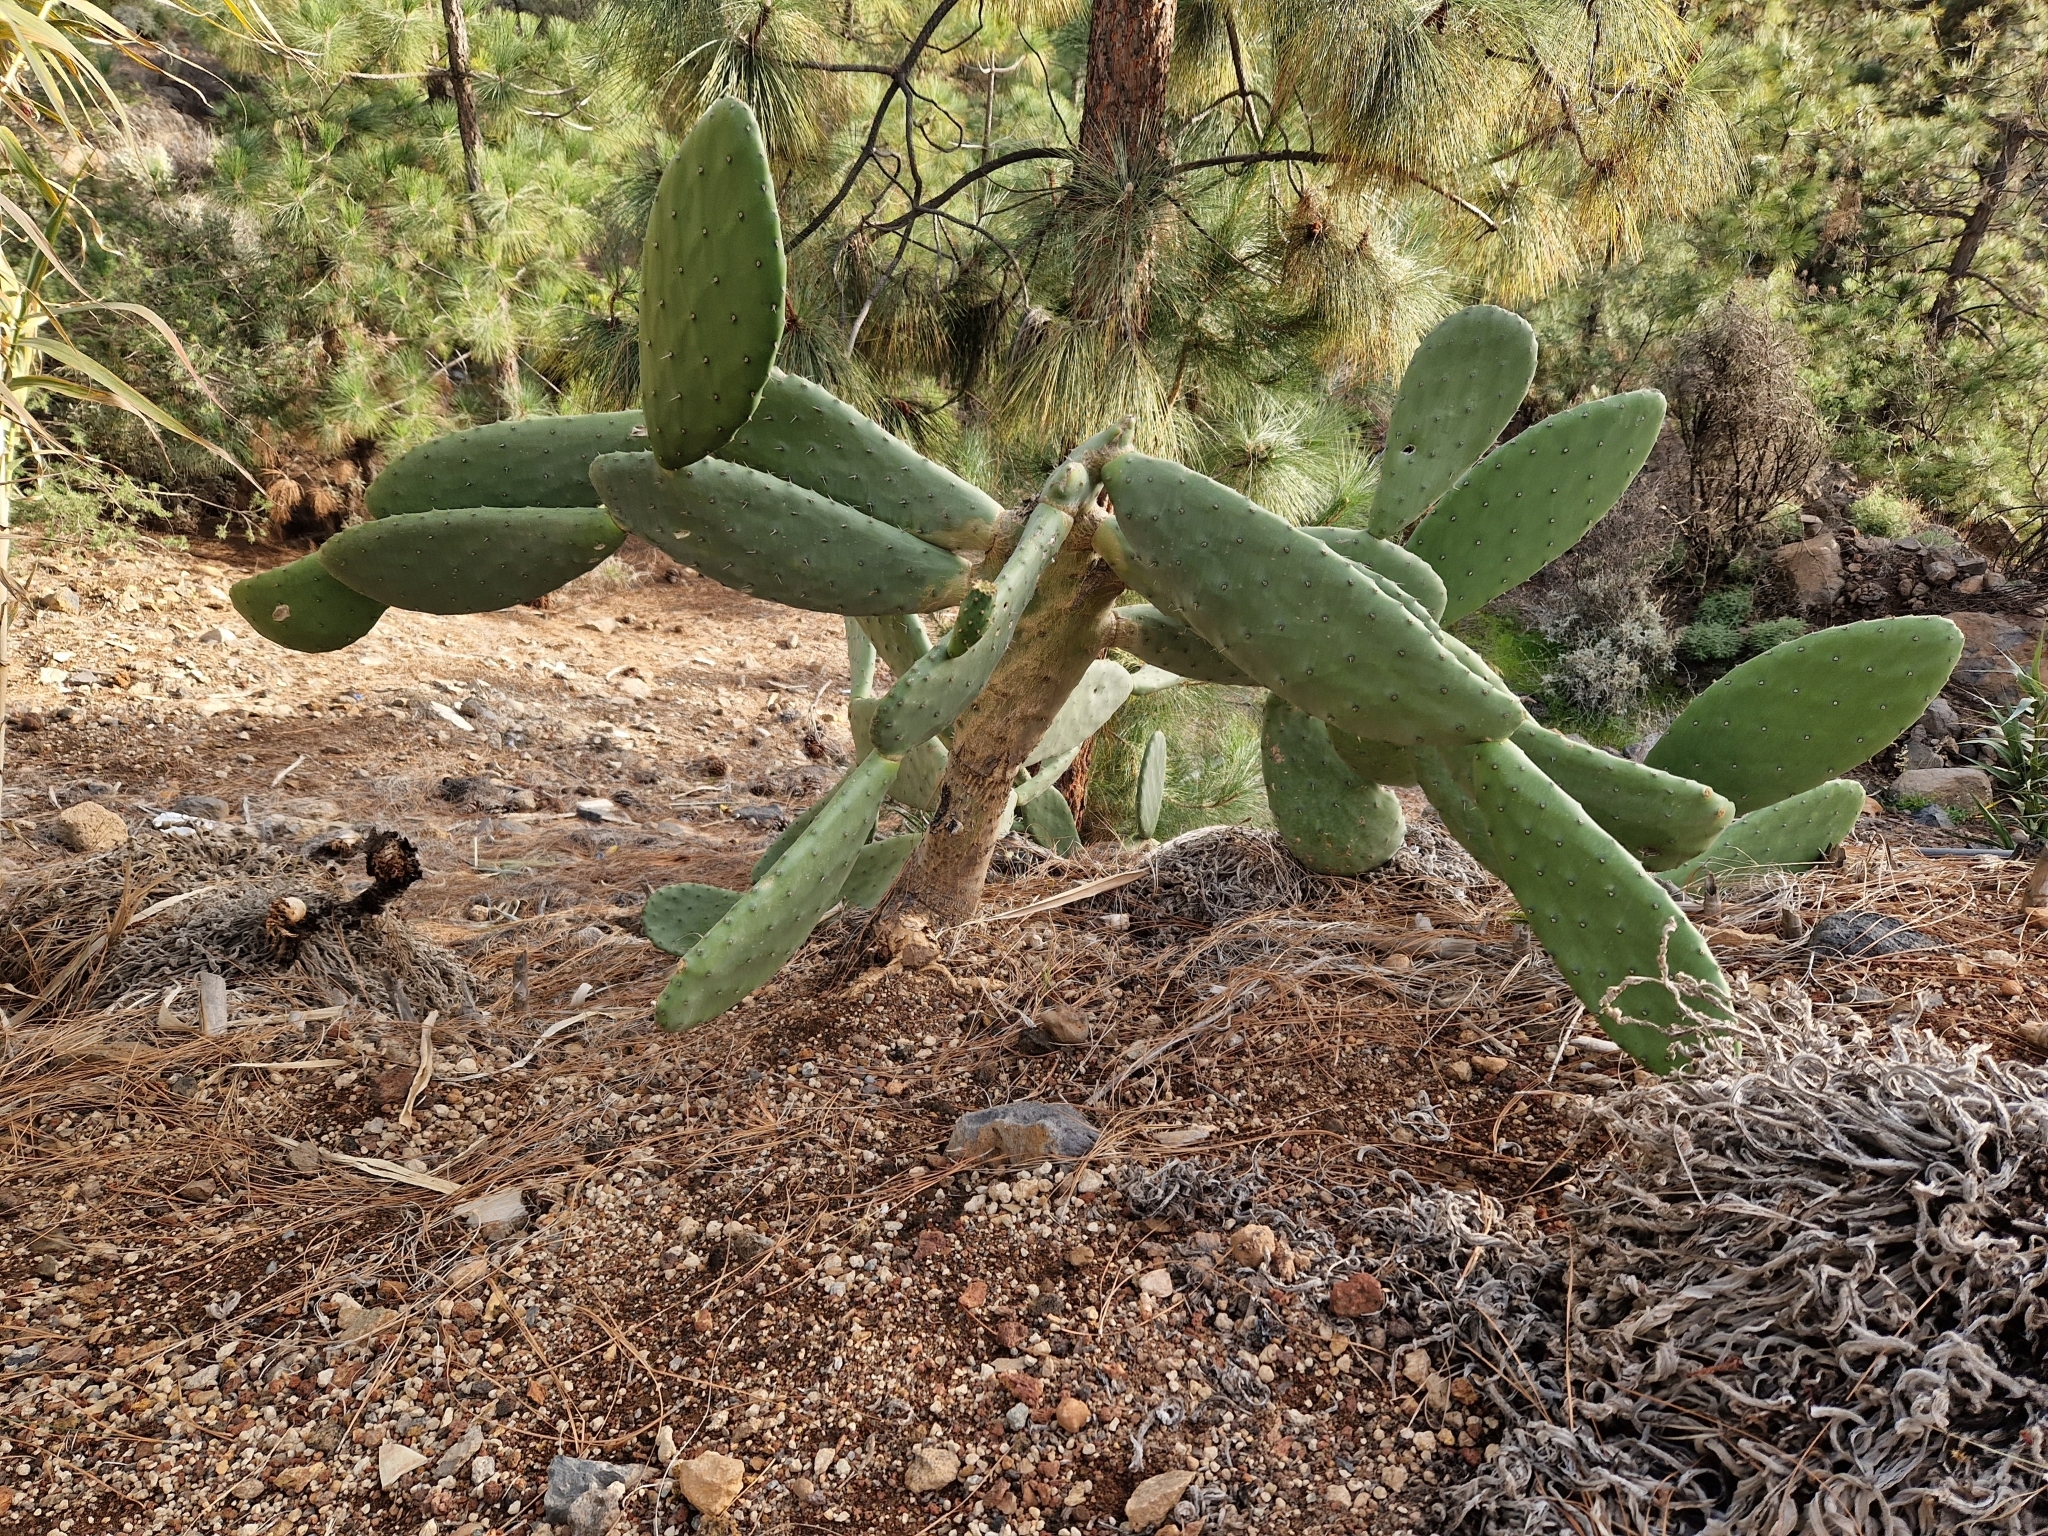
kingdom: Plantae
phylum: Tracheophyta
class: Magnoliopsida
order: Caryophyllales
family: Cactaceae
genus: Opuntia
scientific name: Opuntia ficus-indica
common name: Barbary fig
